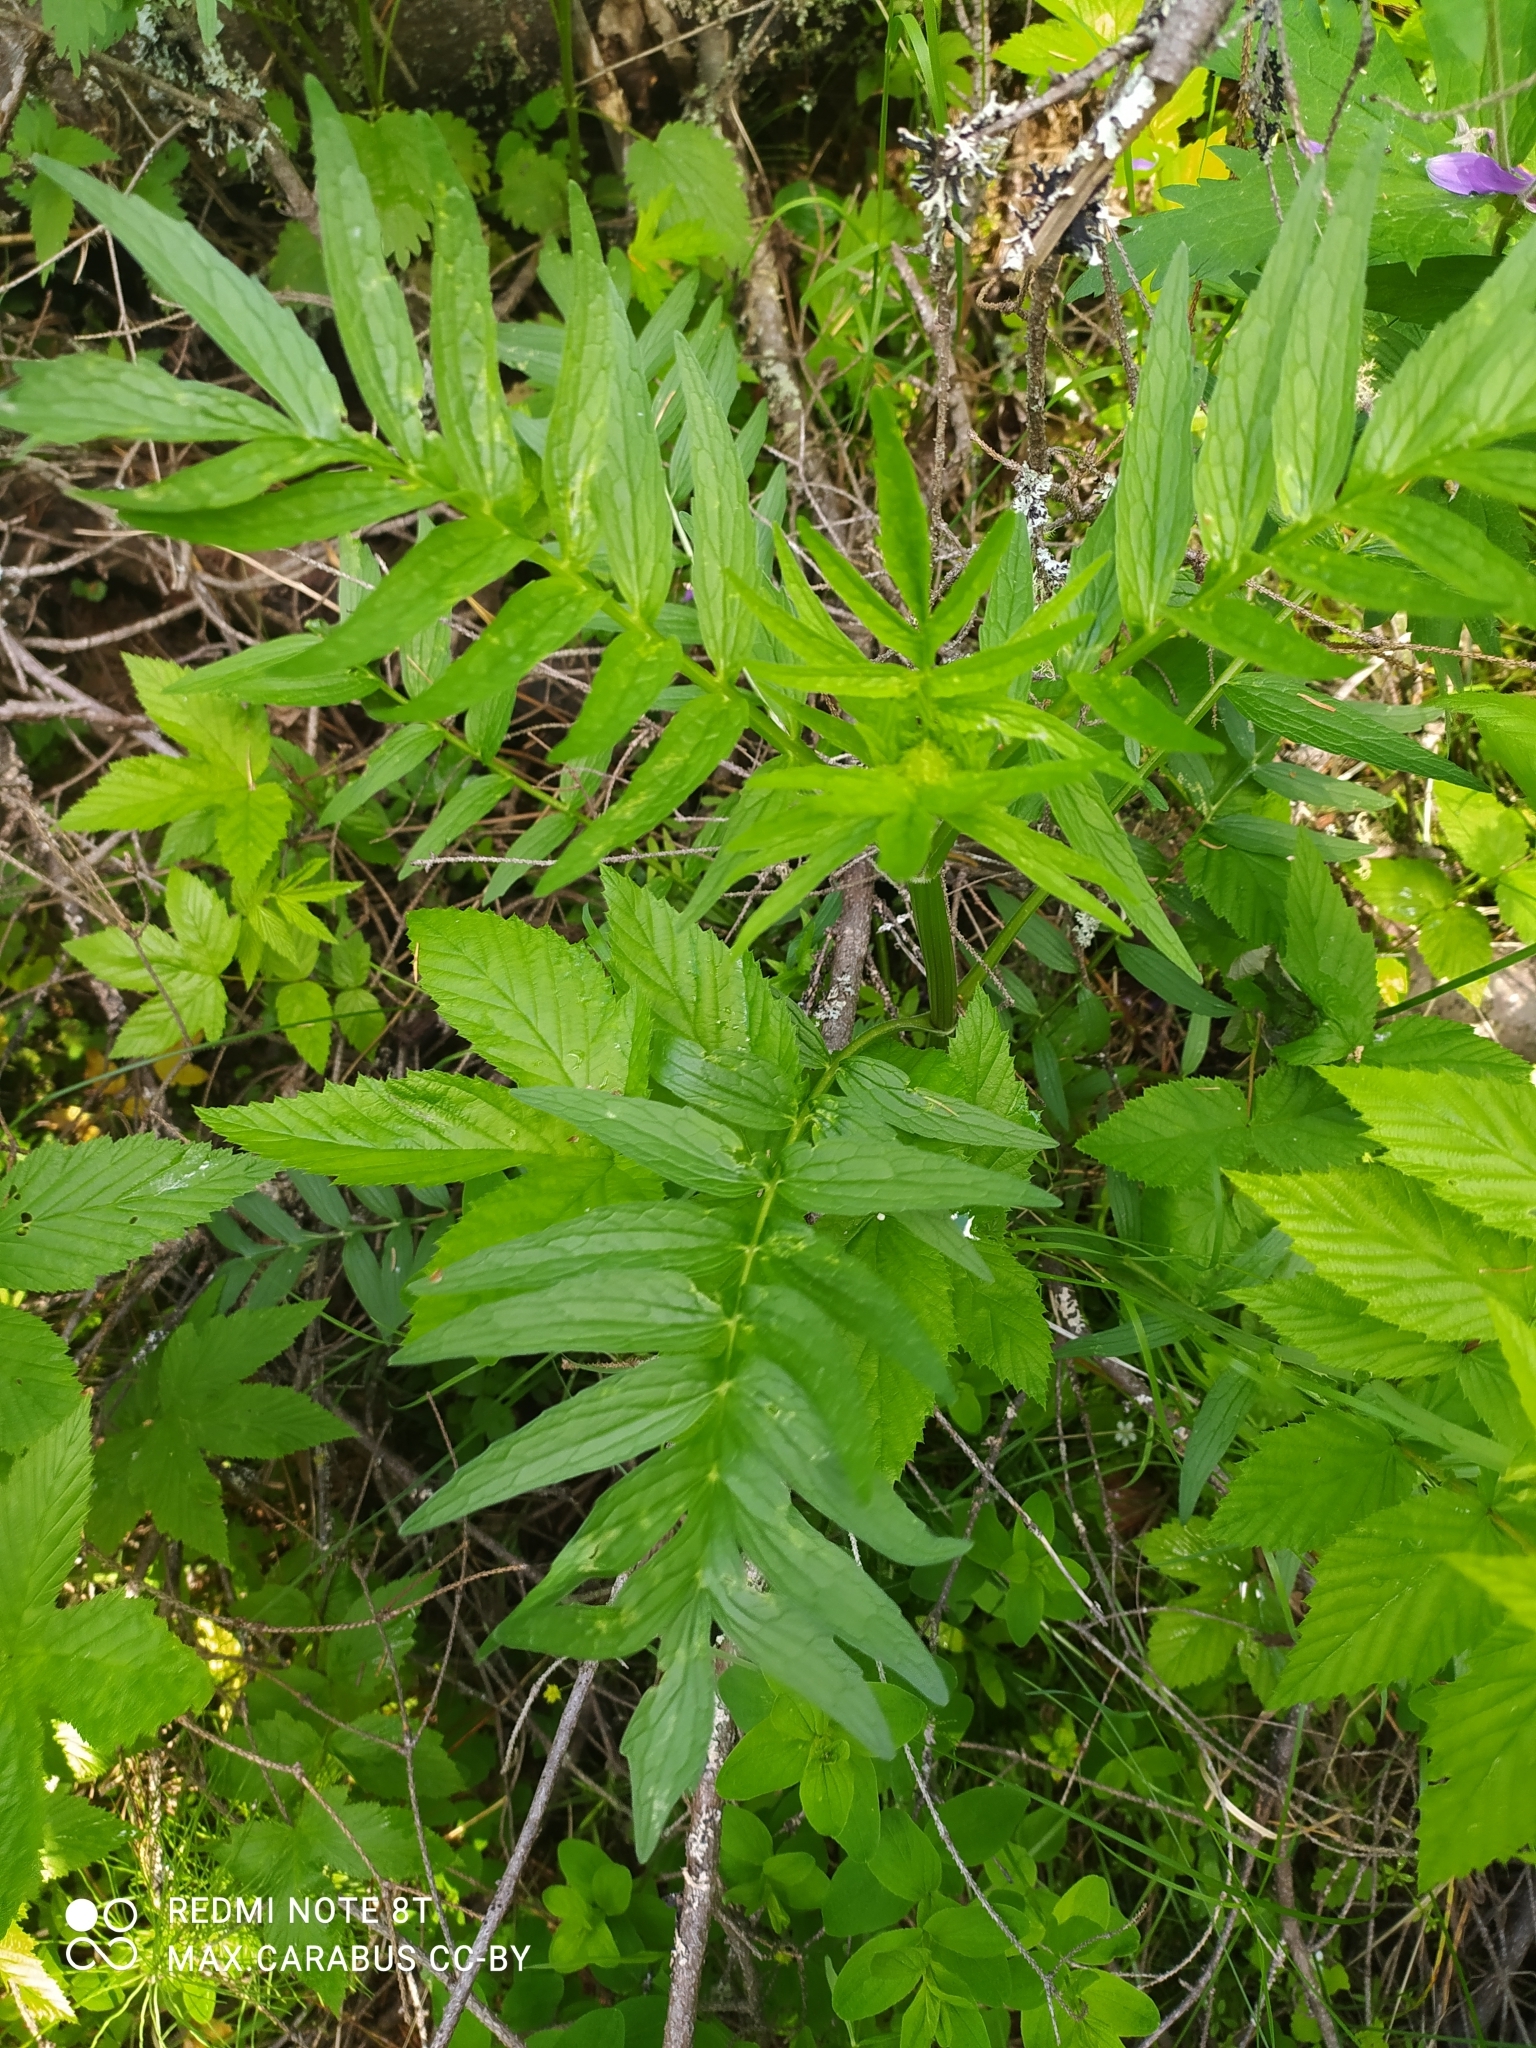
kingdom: Plantae
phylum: Tracheophyta
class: Magnoliopsida
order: Dipsacales
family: Caprifoliaceae
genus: Valeriana
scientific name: Valeriana officinalis
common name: Common valerian
